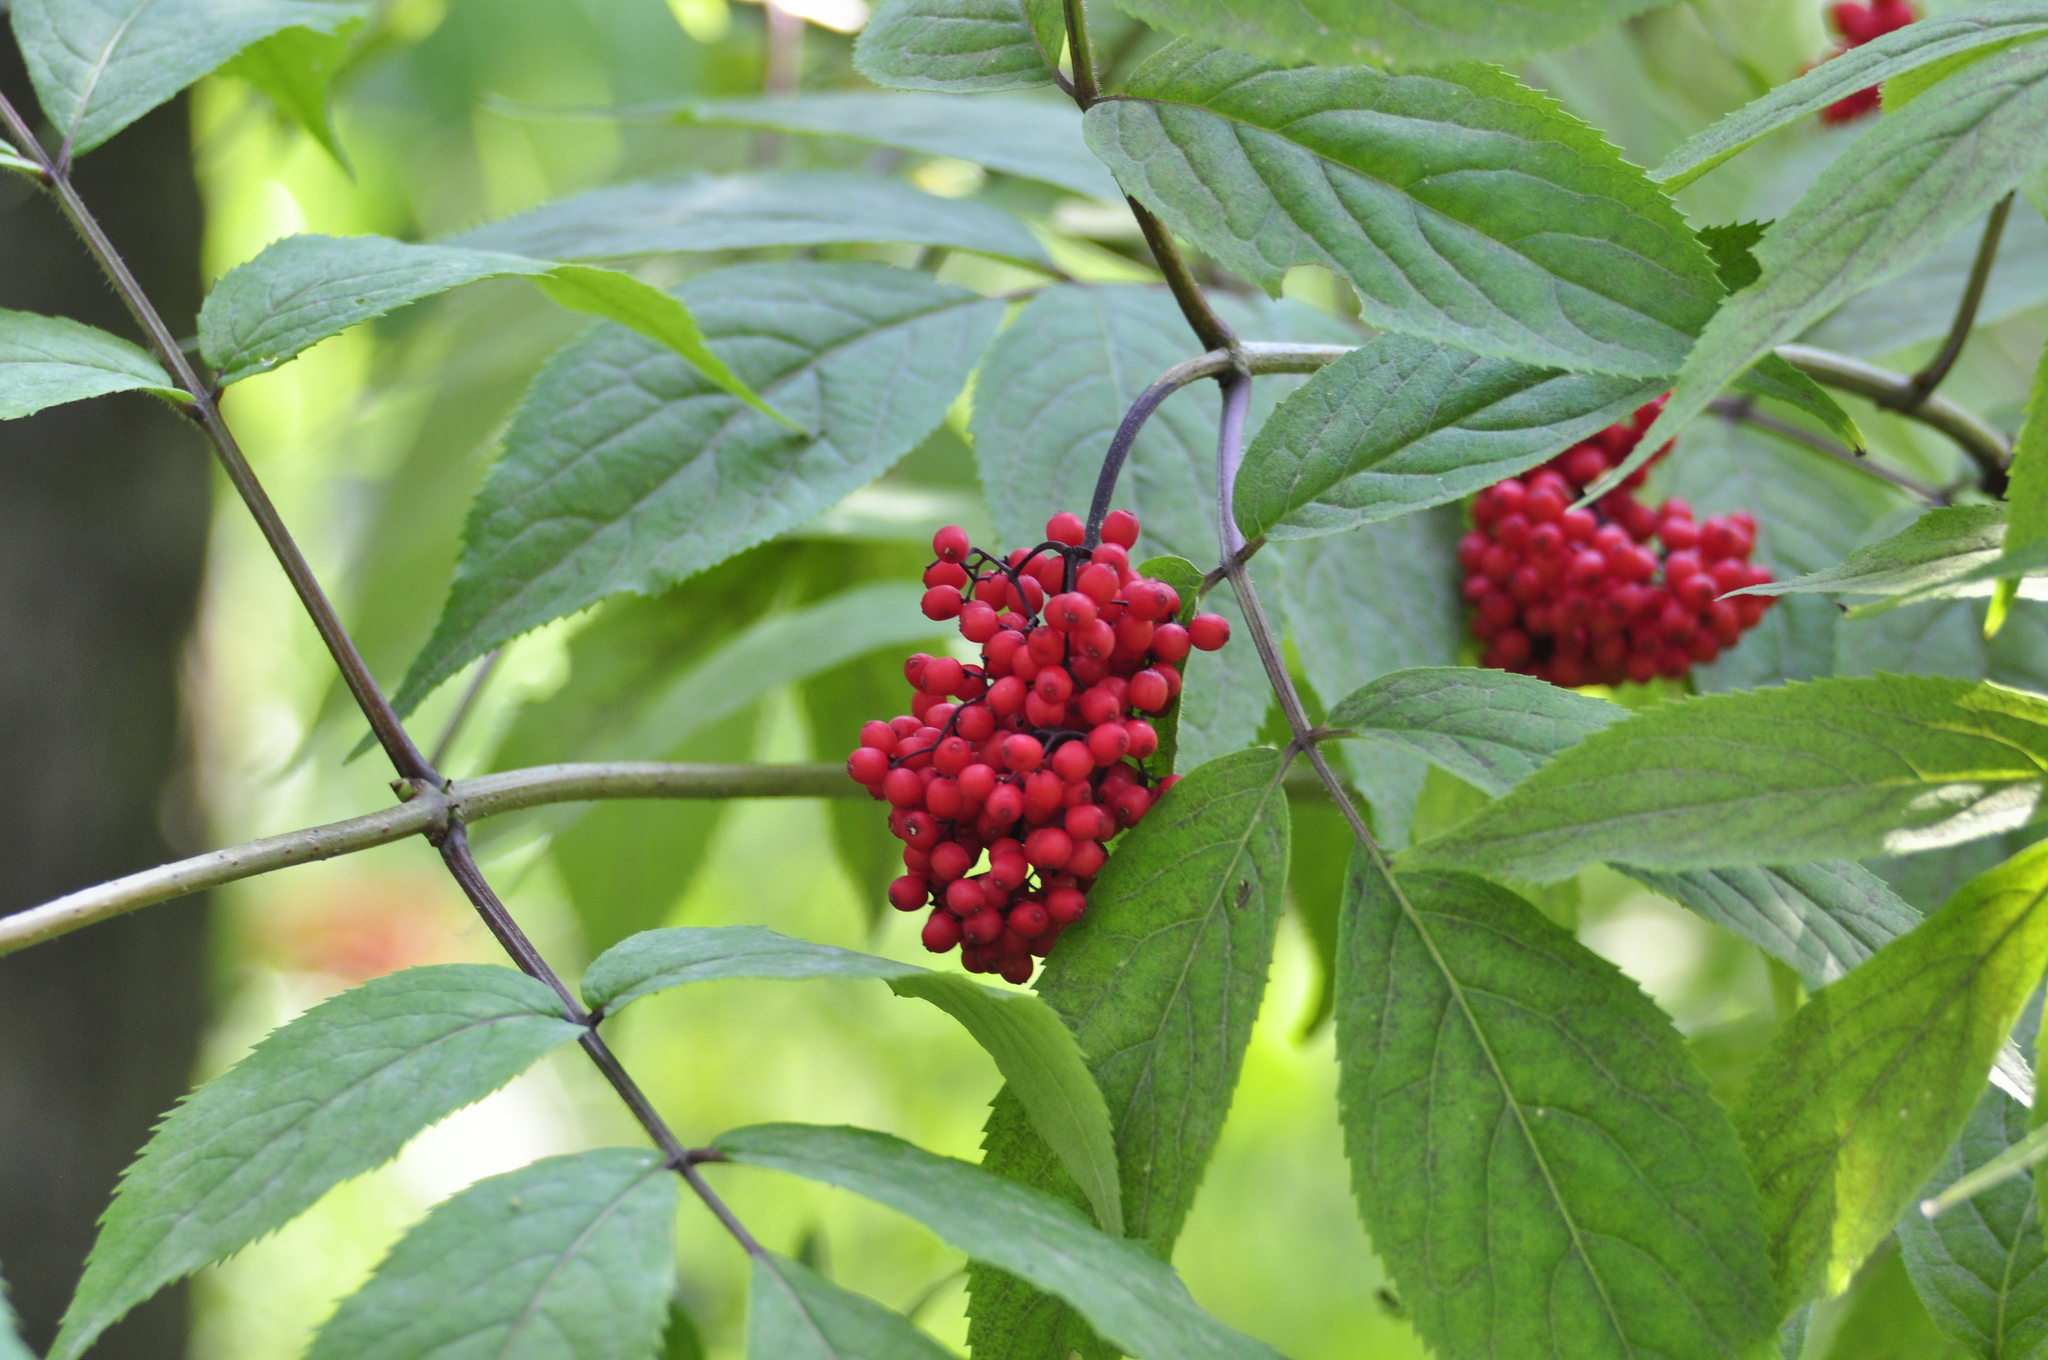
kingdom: Plantae
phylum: Tracheophyta
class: Magnoliopsida
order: Dipsacales
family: Viburnaceae
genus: Sambucus
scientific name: Sambucus racemosa
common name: Red-berried elder
